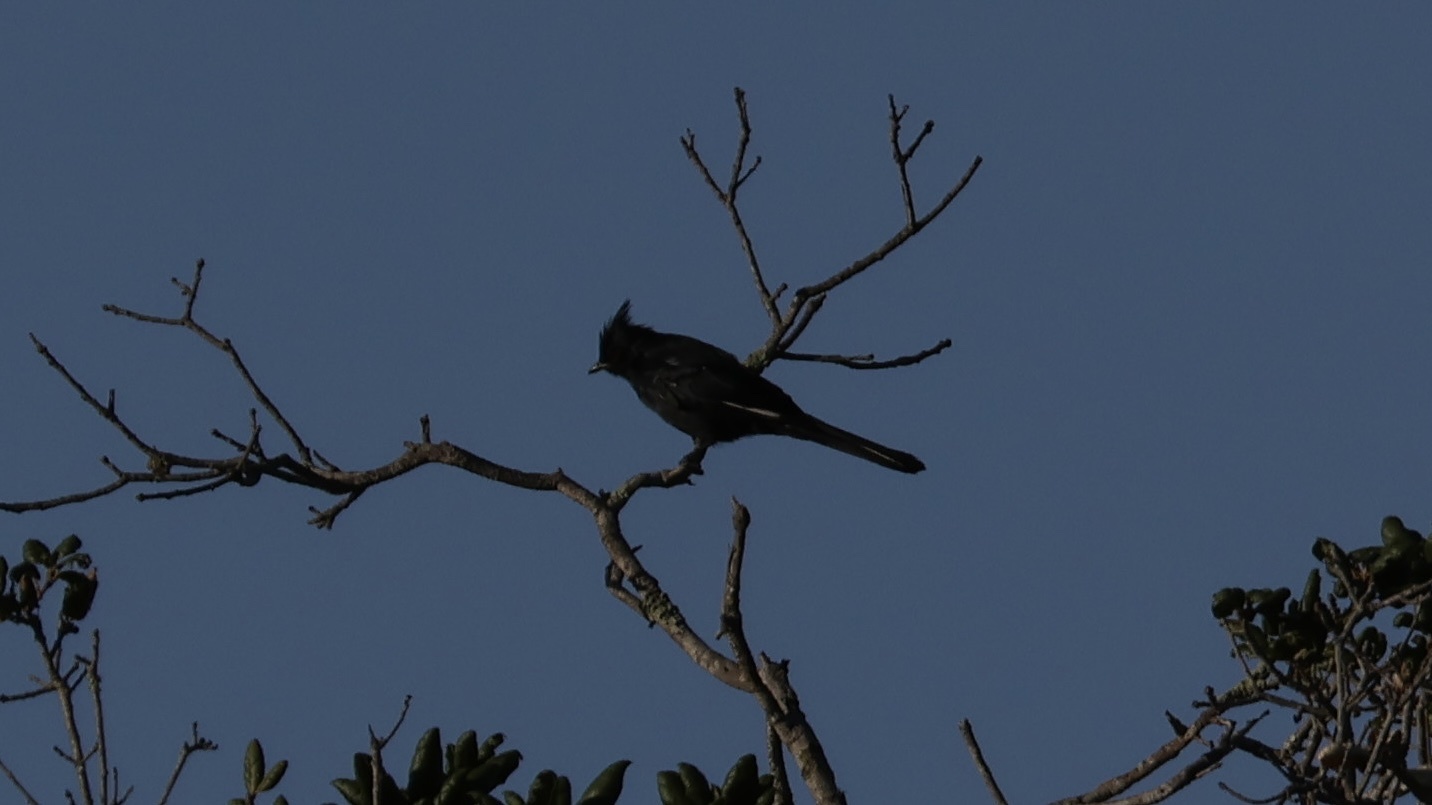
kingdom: Animalia
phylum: Chordata
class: Aves
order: Passeriformes
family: Ptilogonatidae
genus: Phainopepla
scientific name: Phainopepla nitens
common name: Phainopepla
